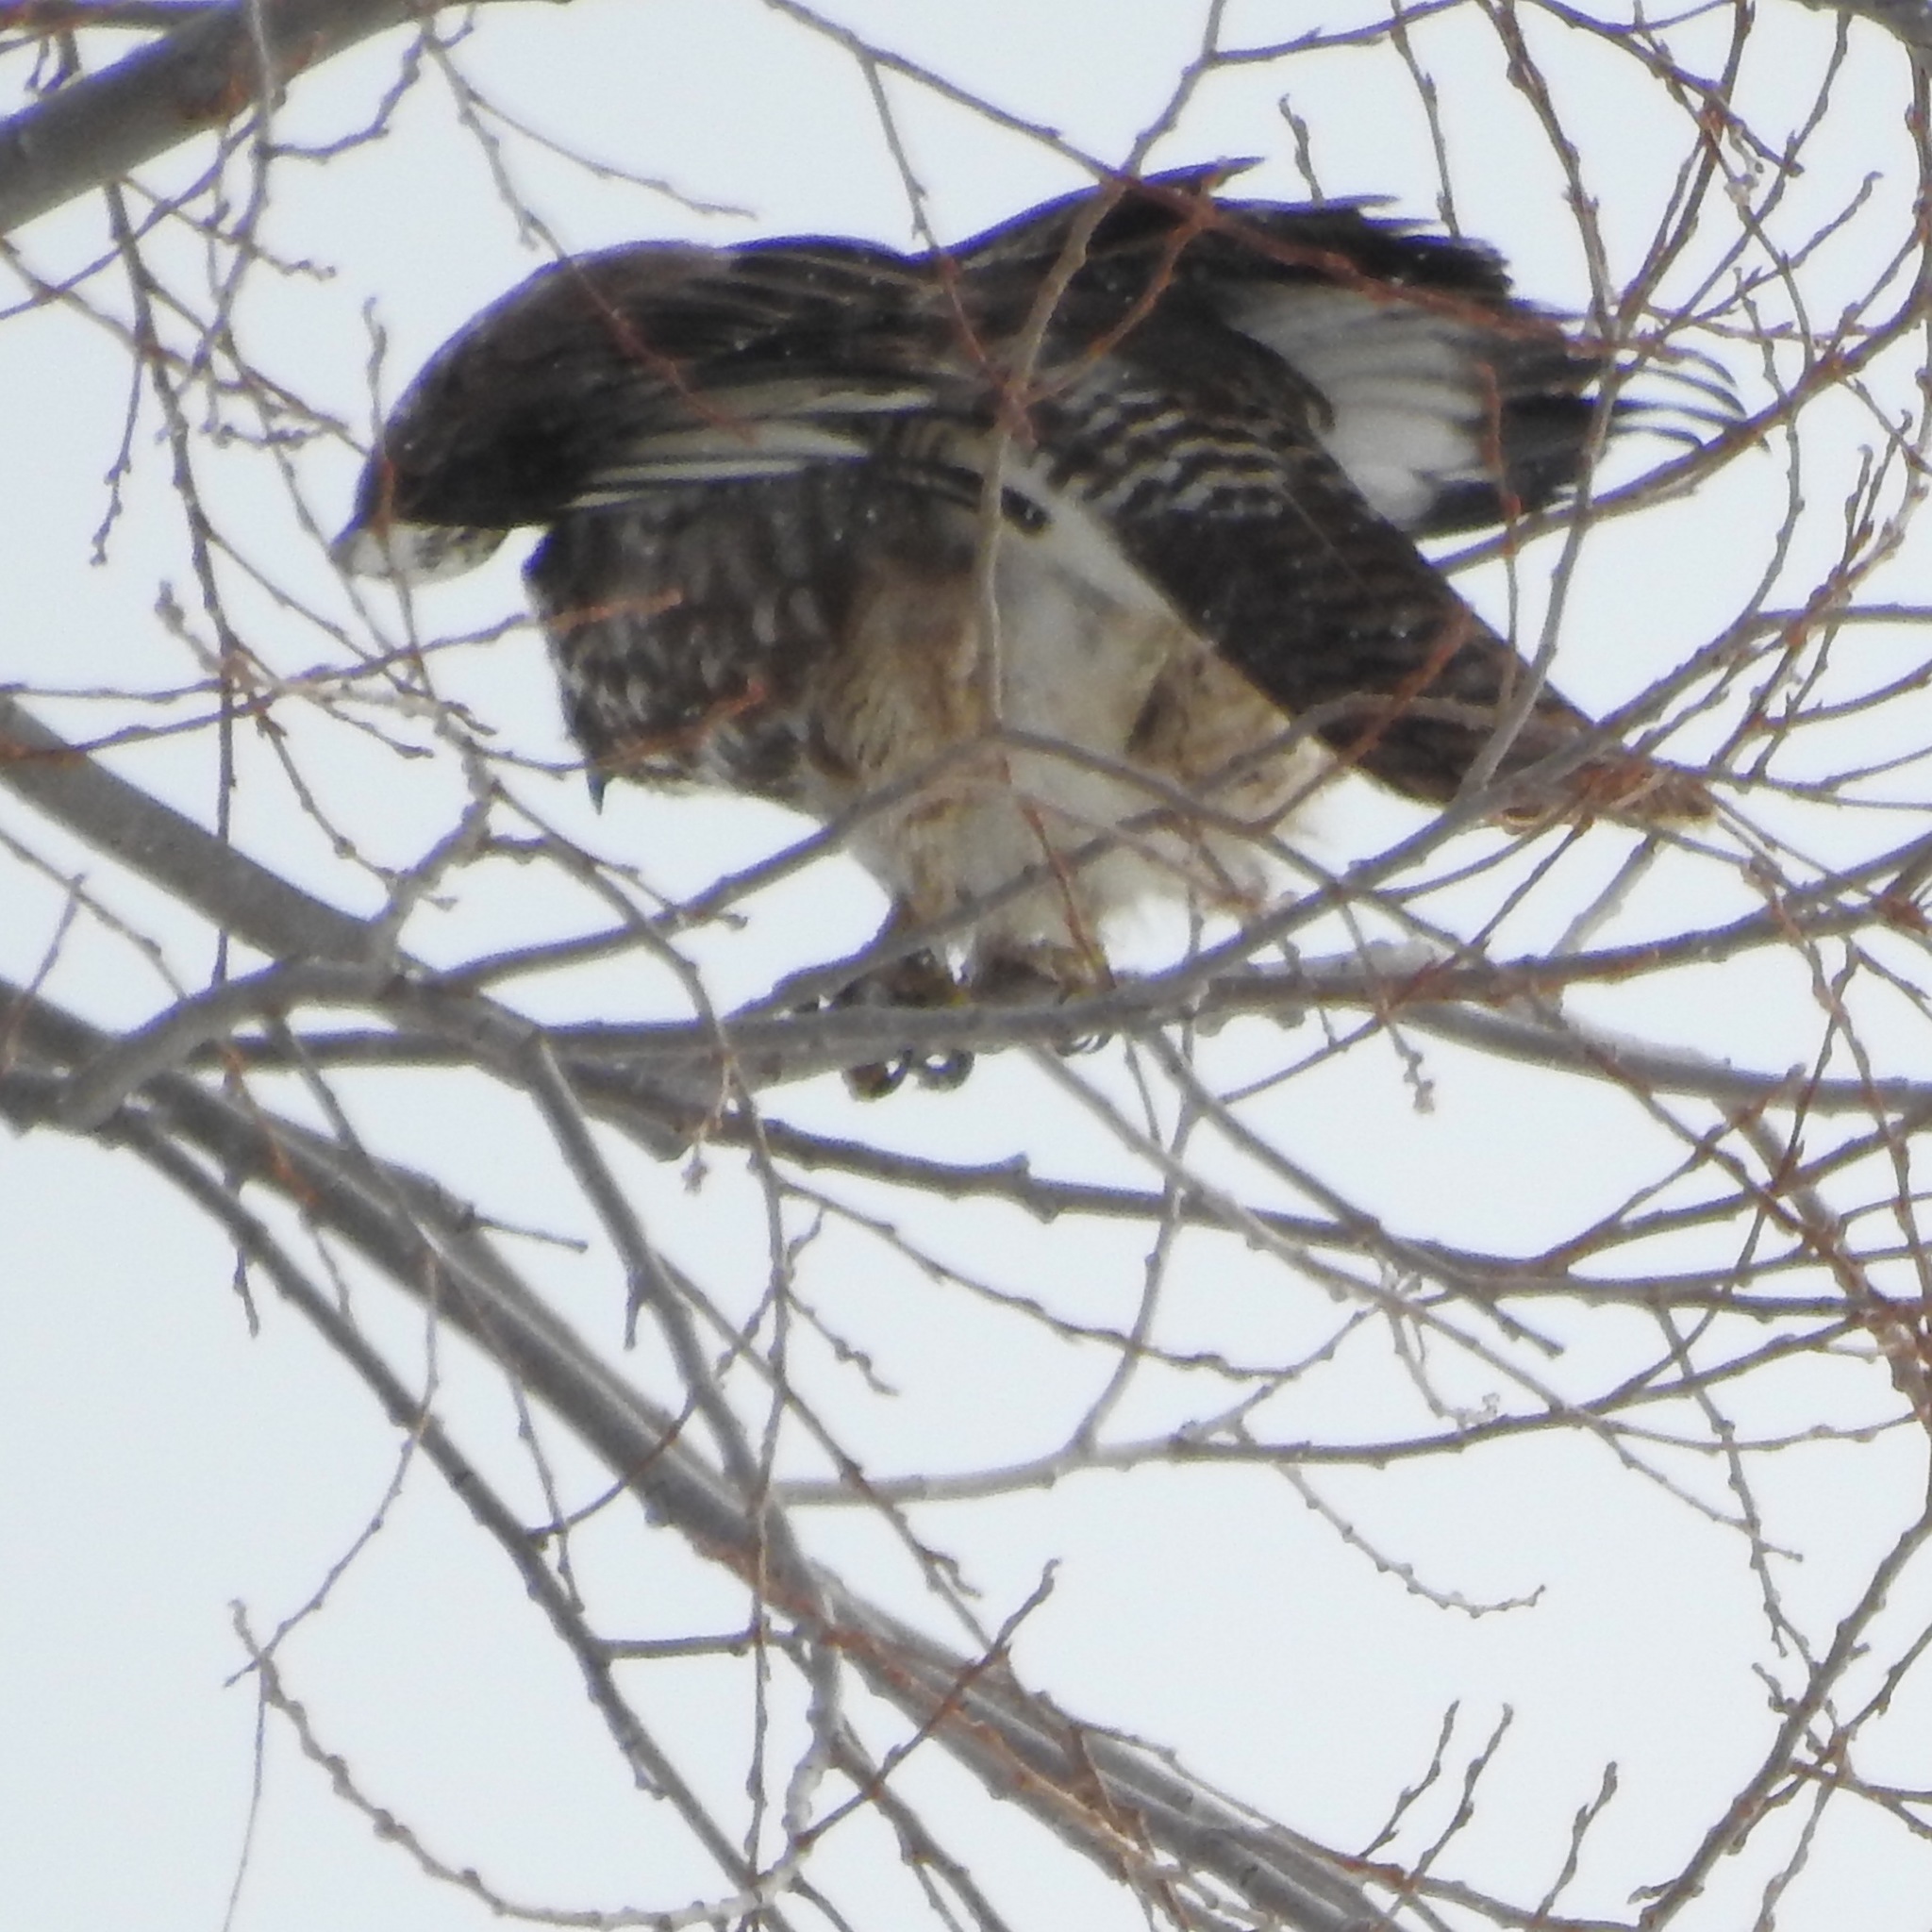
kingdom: Animalia
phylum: Chordata
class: Aves
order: Accipitriformes
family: Accipitridae
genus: Buteo
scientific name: Buteo jamaicensis
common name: Red-tailed hawk
